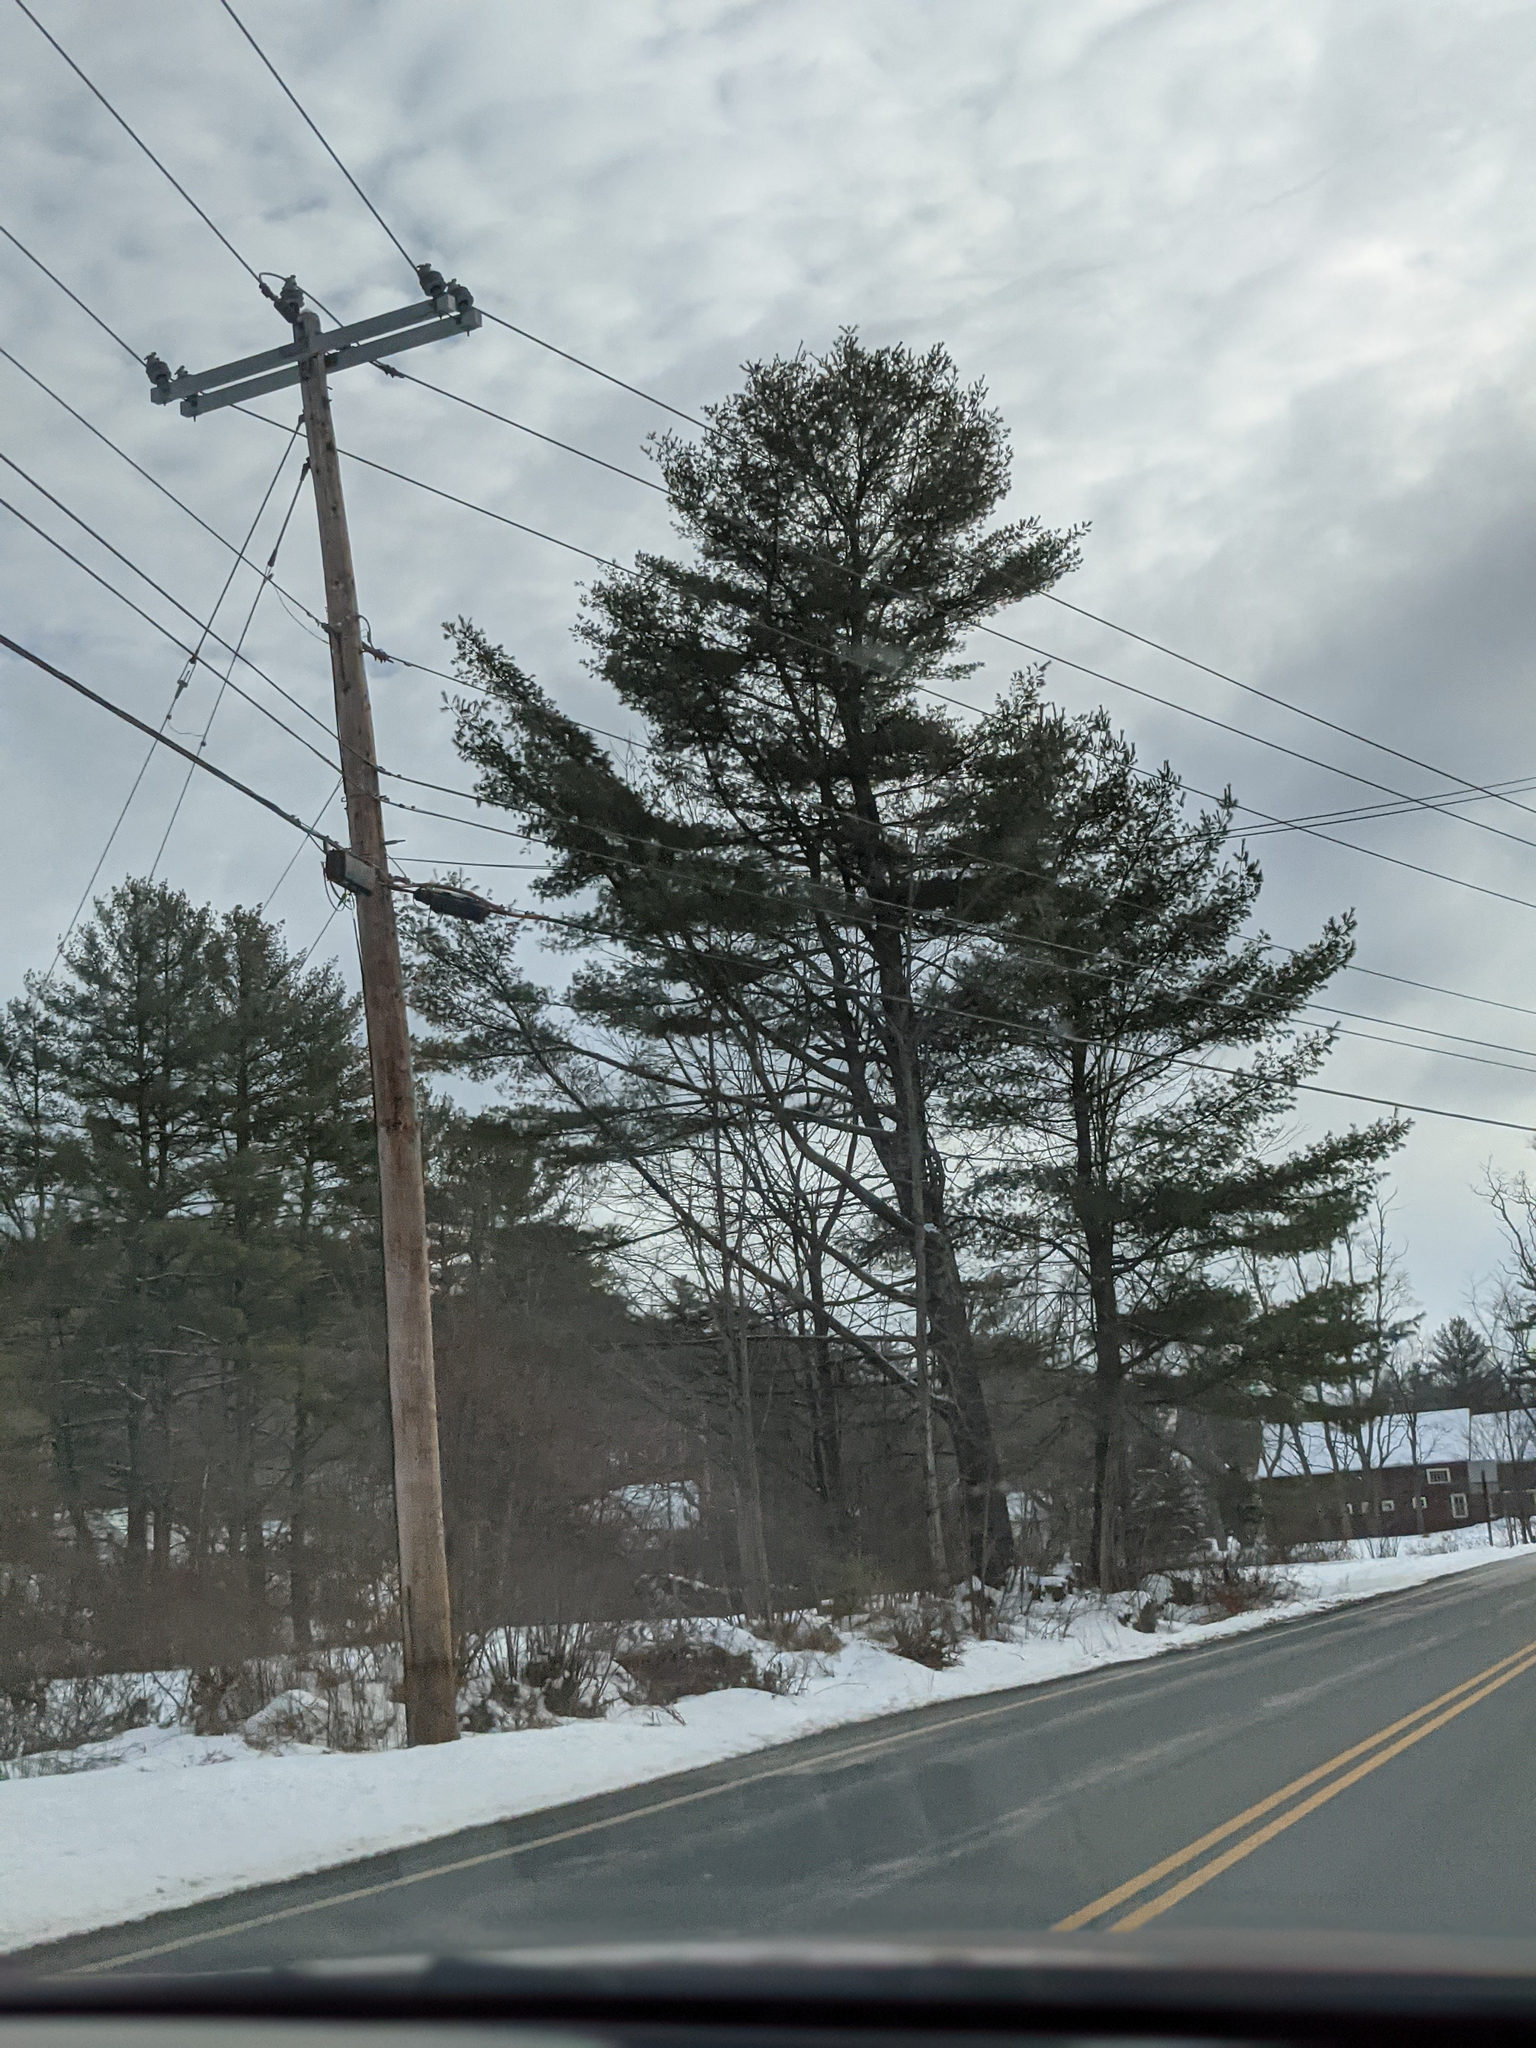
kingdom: Plantae
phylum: Tracheophyta
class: Pinopsida
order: Pinales
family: Pinaceae
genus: Pinus
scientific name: Pinus strobus
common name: Weymouth pine
